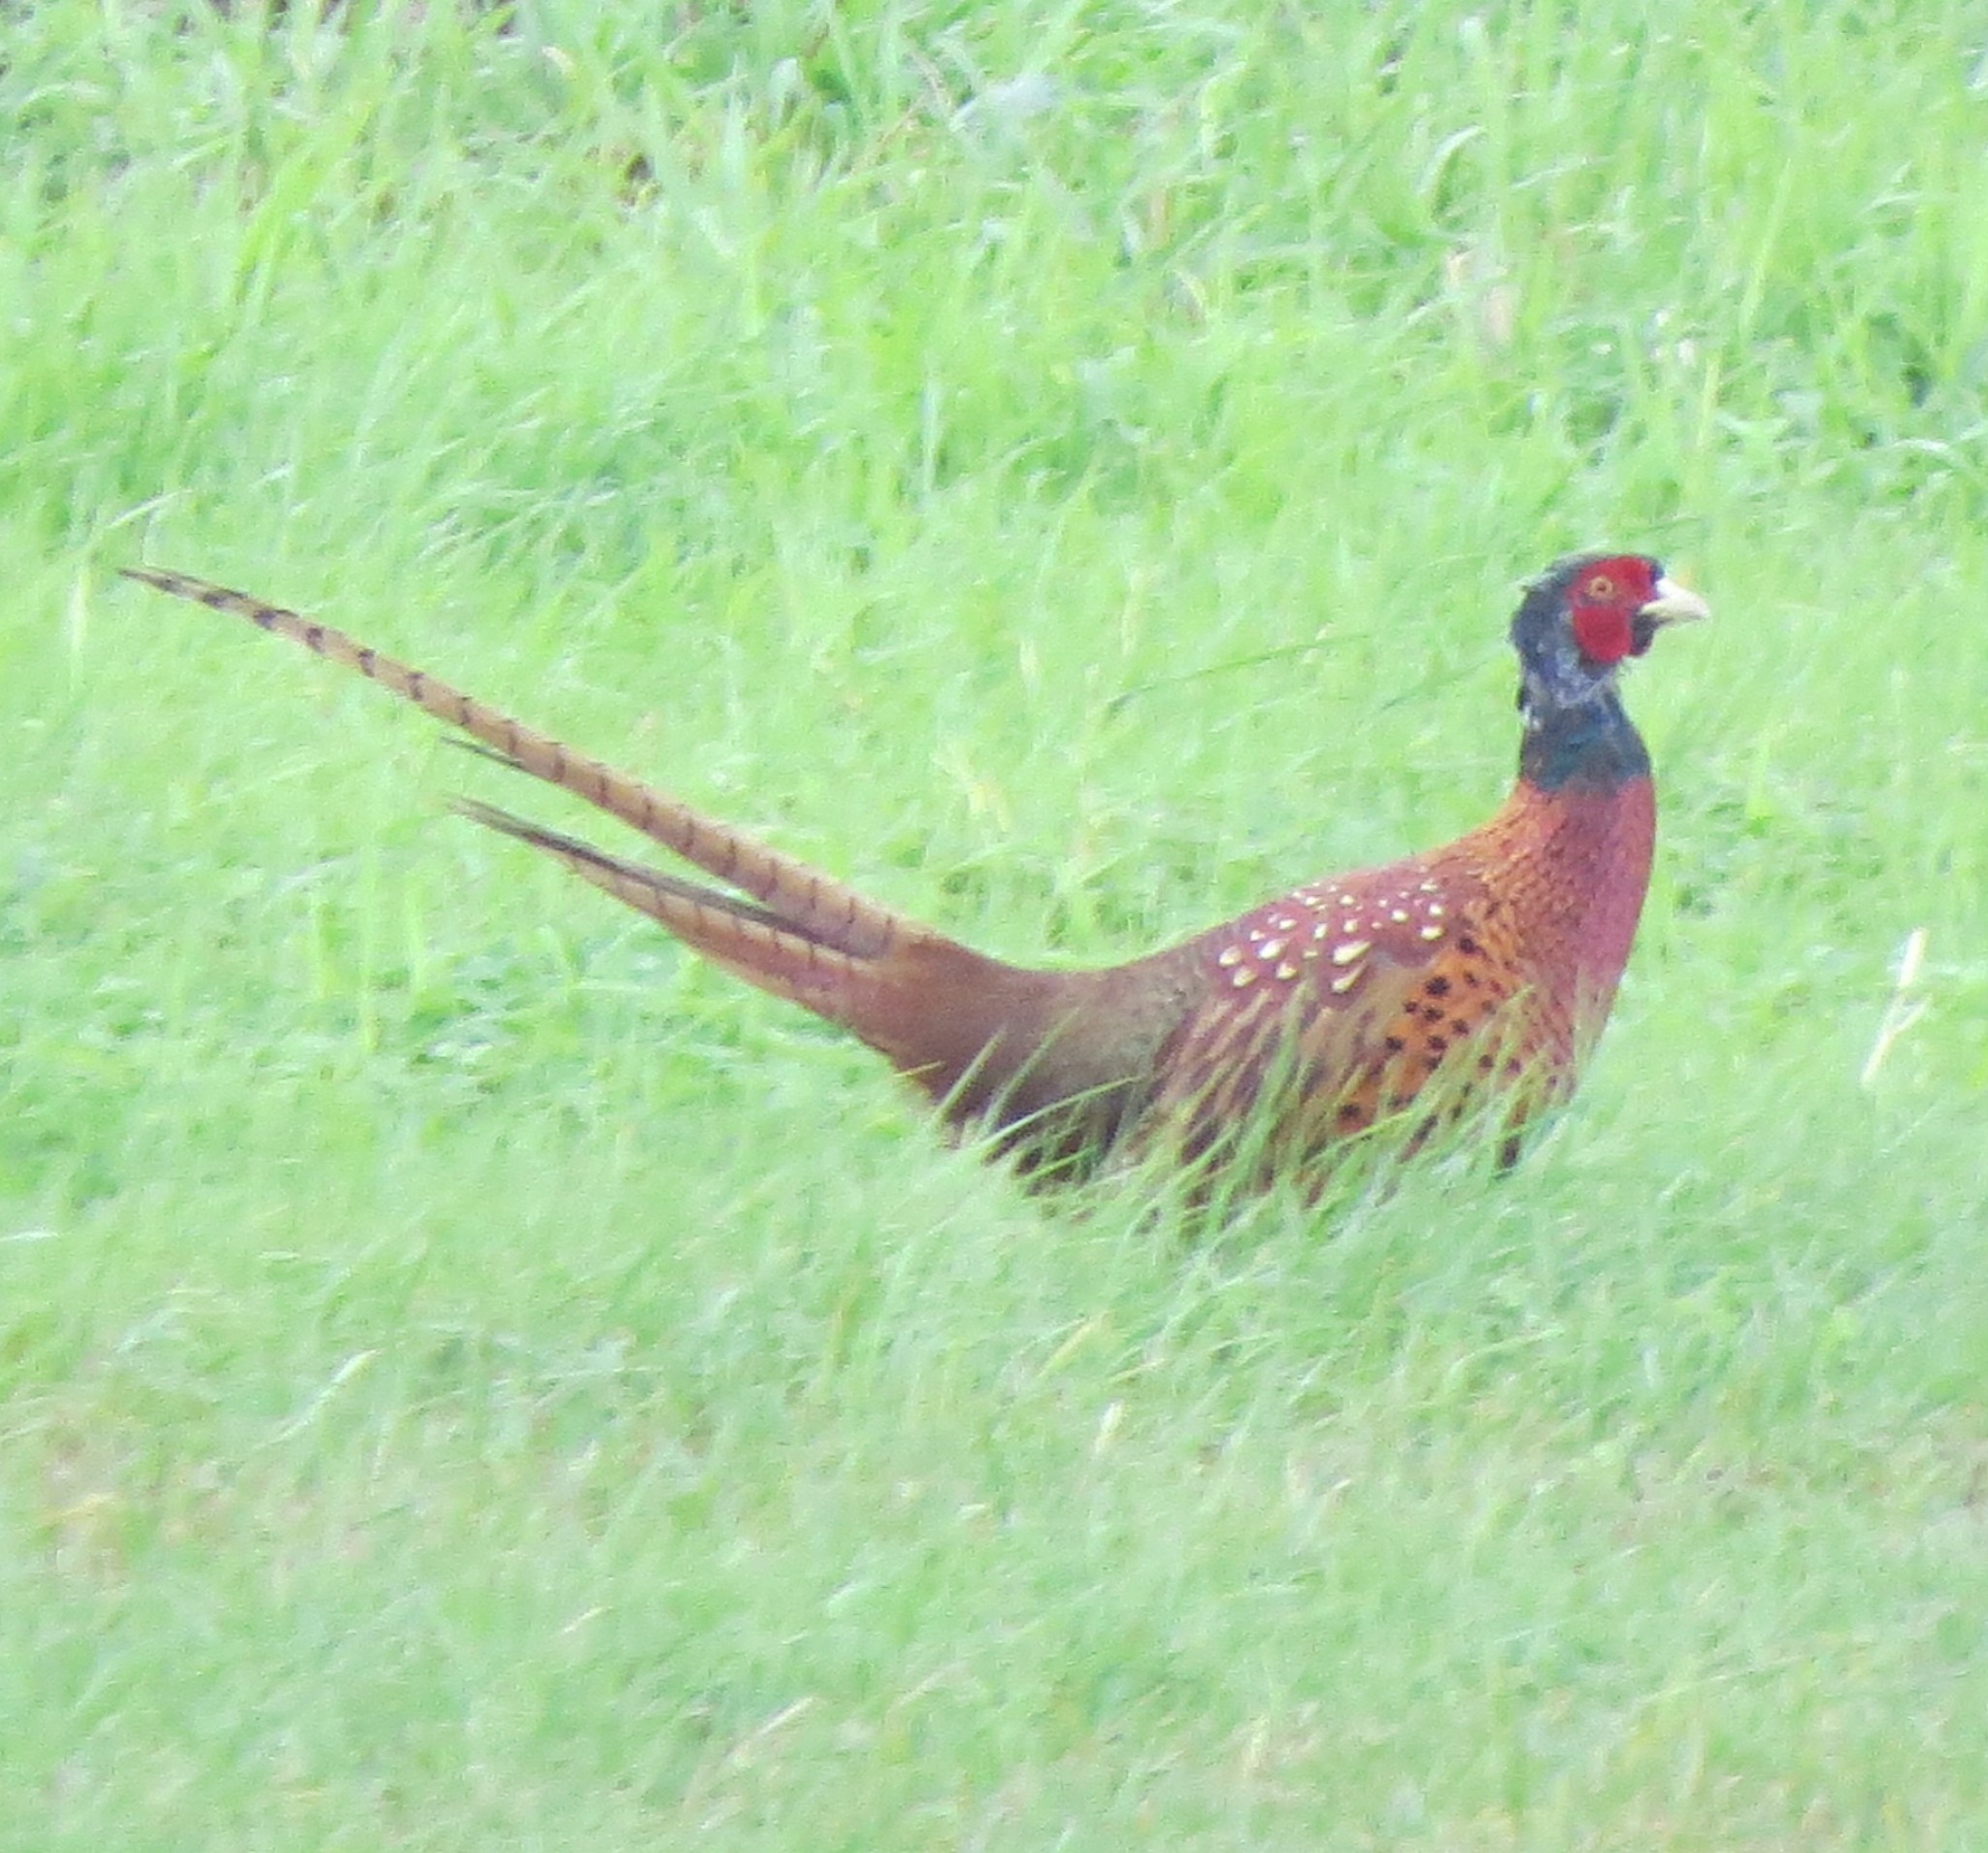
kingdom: Animalia
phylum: Chordata
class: Aves
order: Galliformes
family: Phasianidae
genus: Phasianus
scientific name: Phasianus colchicus
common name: Common pheasant
